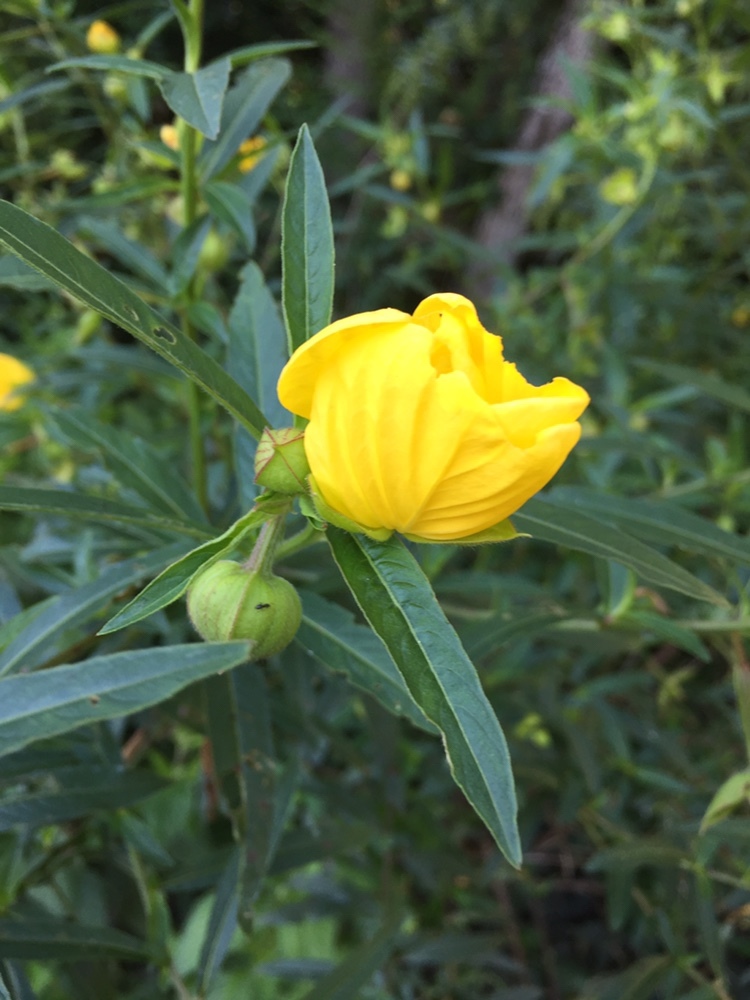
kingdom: Plantae
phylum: Tracheophyta
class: Magnoliopsida
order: Myrtales
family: Onagraceae
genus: Ludwigia
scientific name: Ludwigia bonariensis
